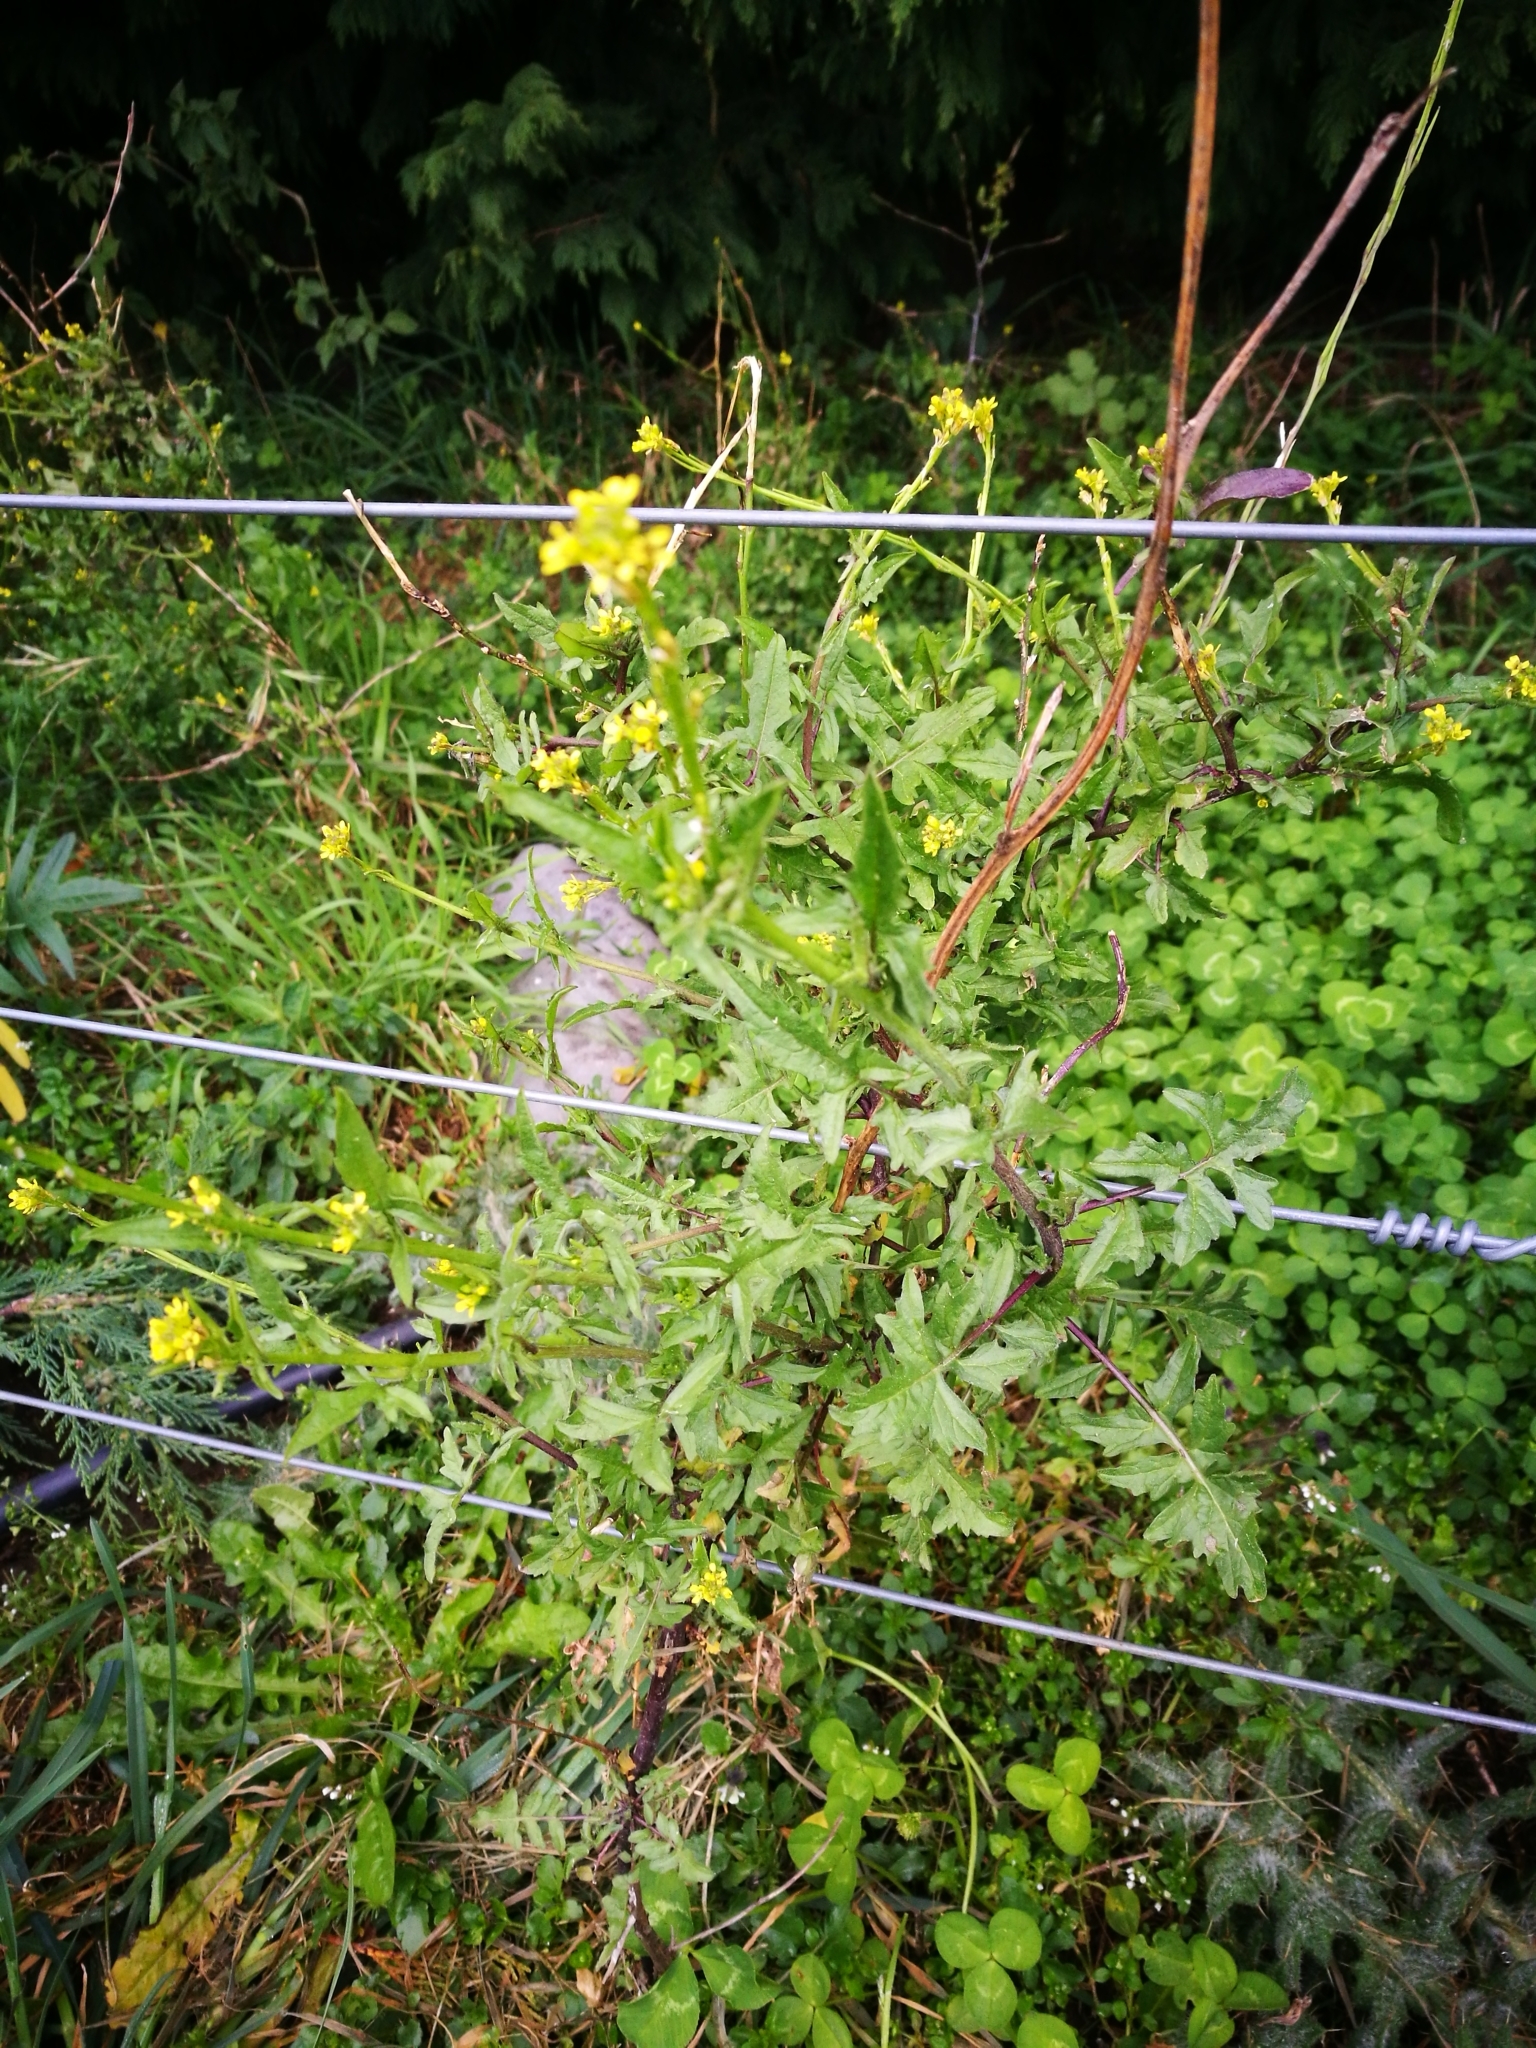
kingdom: Plantae
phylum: Tracheophyta
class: Magnoliopsida
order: Brassicales
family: Brassicaceae
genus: Sisymbrium
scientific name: Sisymbrium officinale
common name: Hedge mustard
